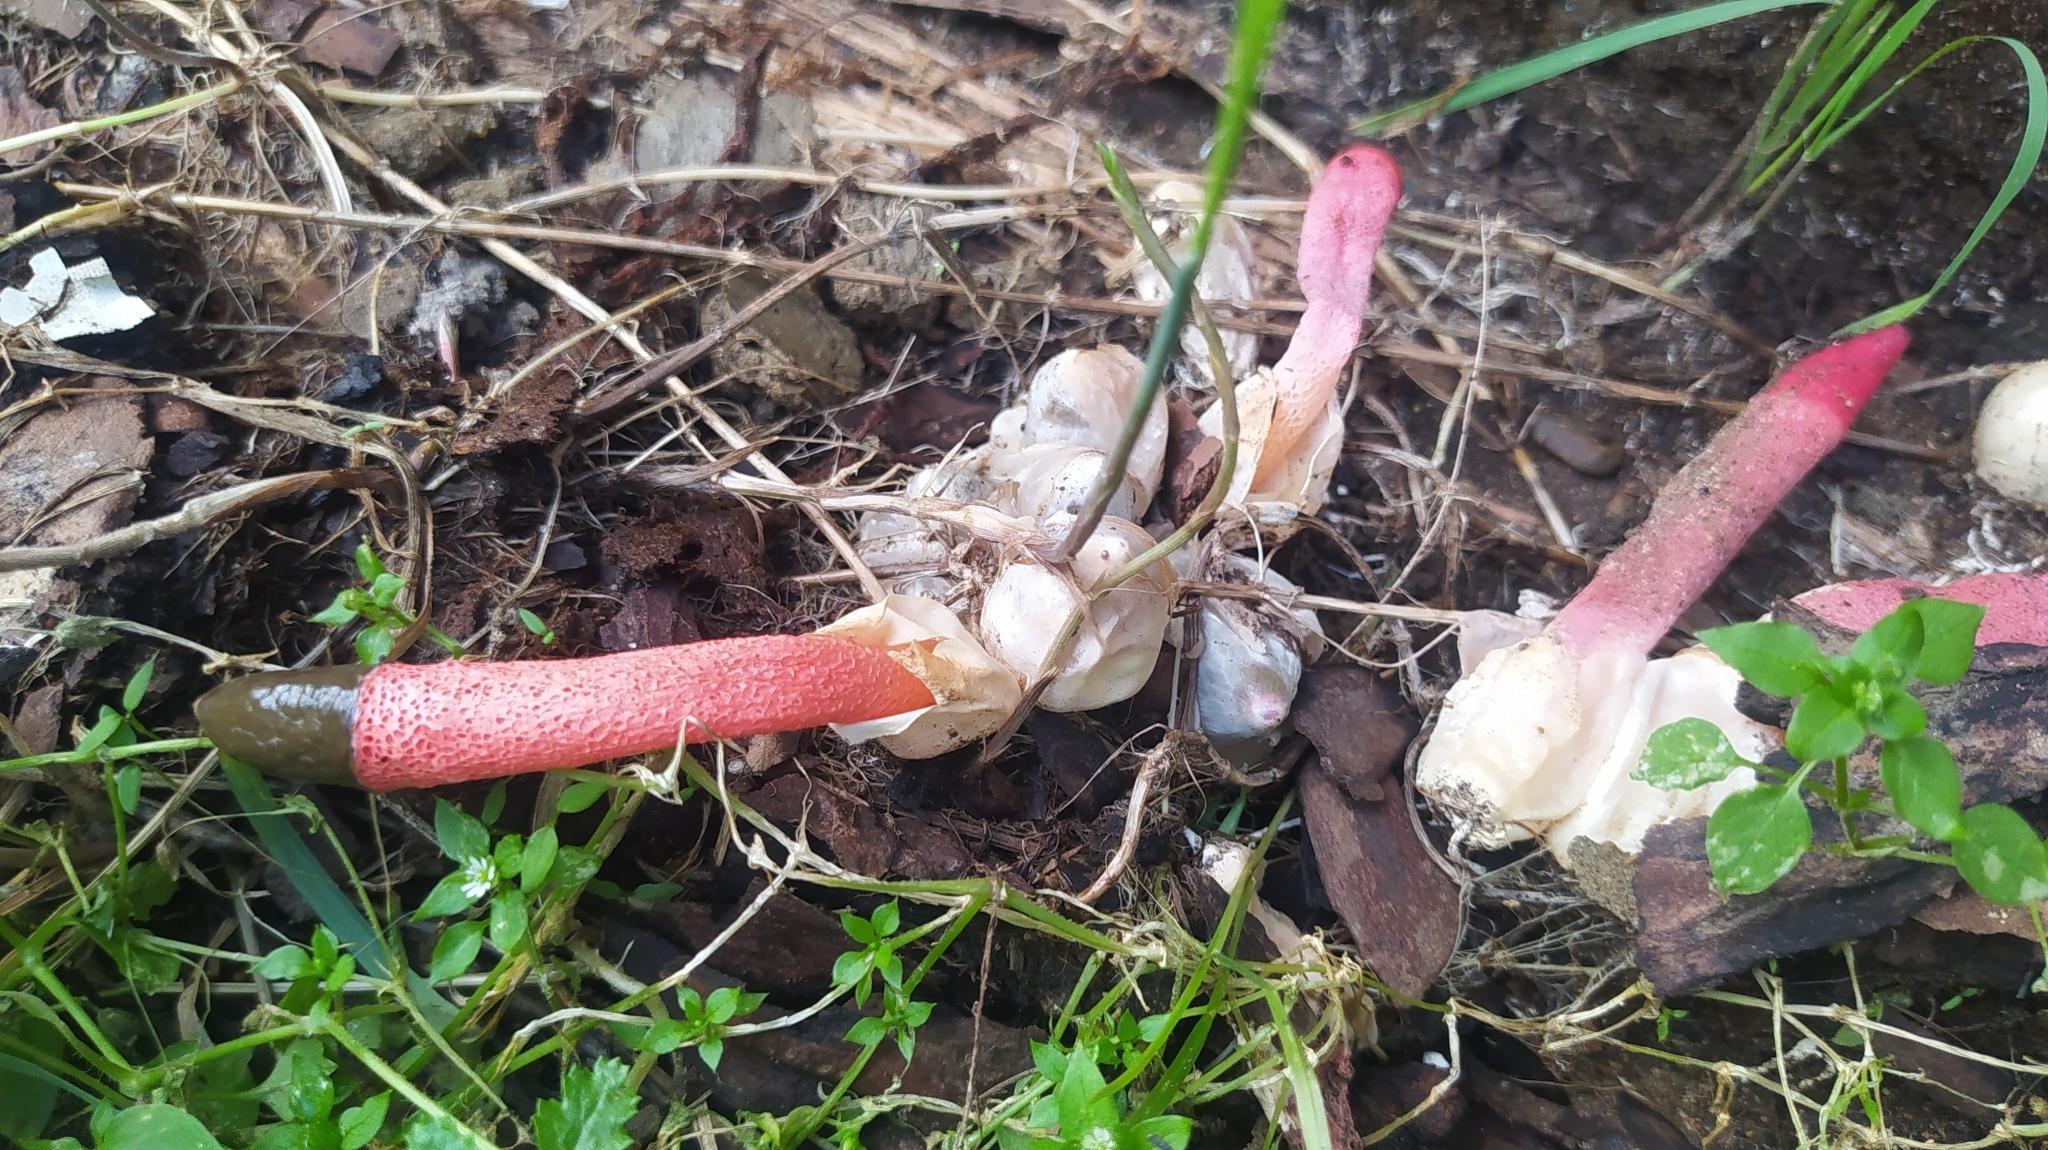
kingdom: Fungi
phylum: Basidiomycota
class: Agaricomycetes
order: Phallales
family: Phallaceae
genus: Mutinus
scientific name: Mutinus ravenelii
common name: Red stinkhorn
